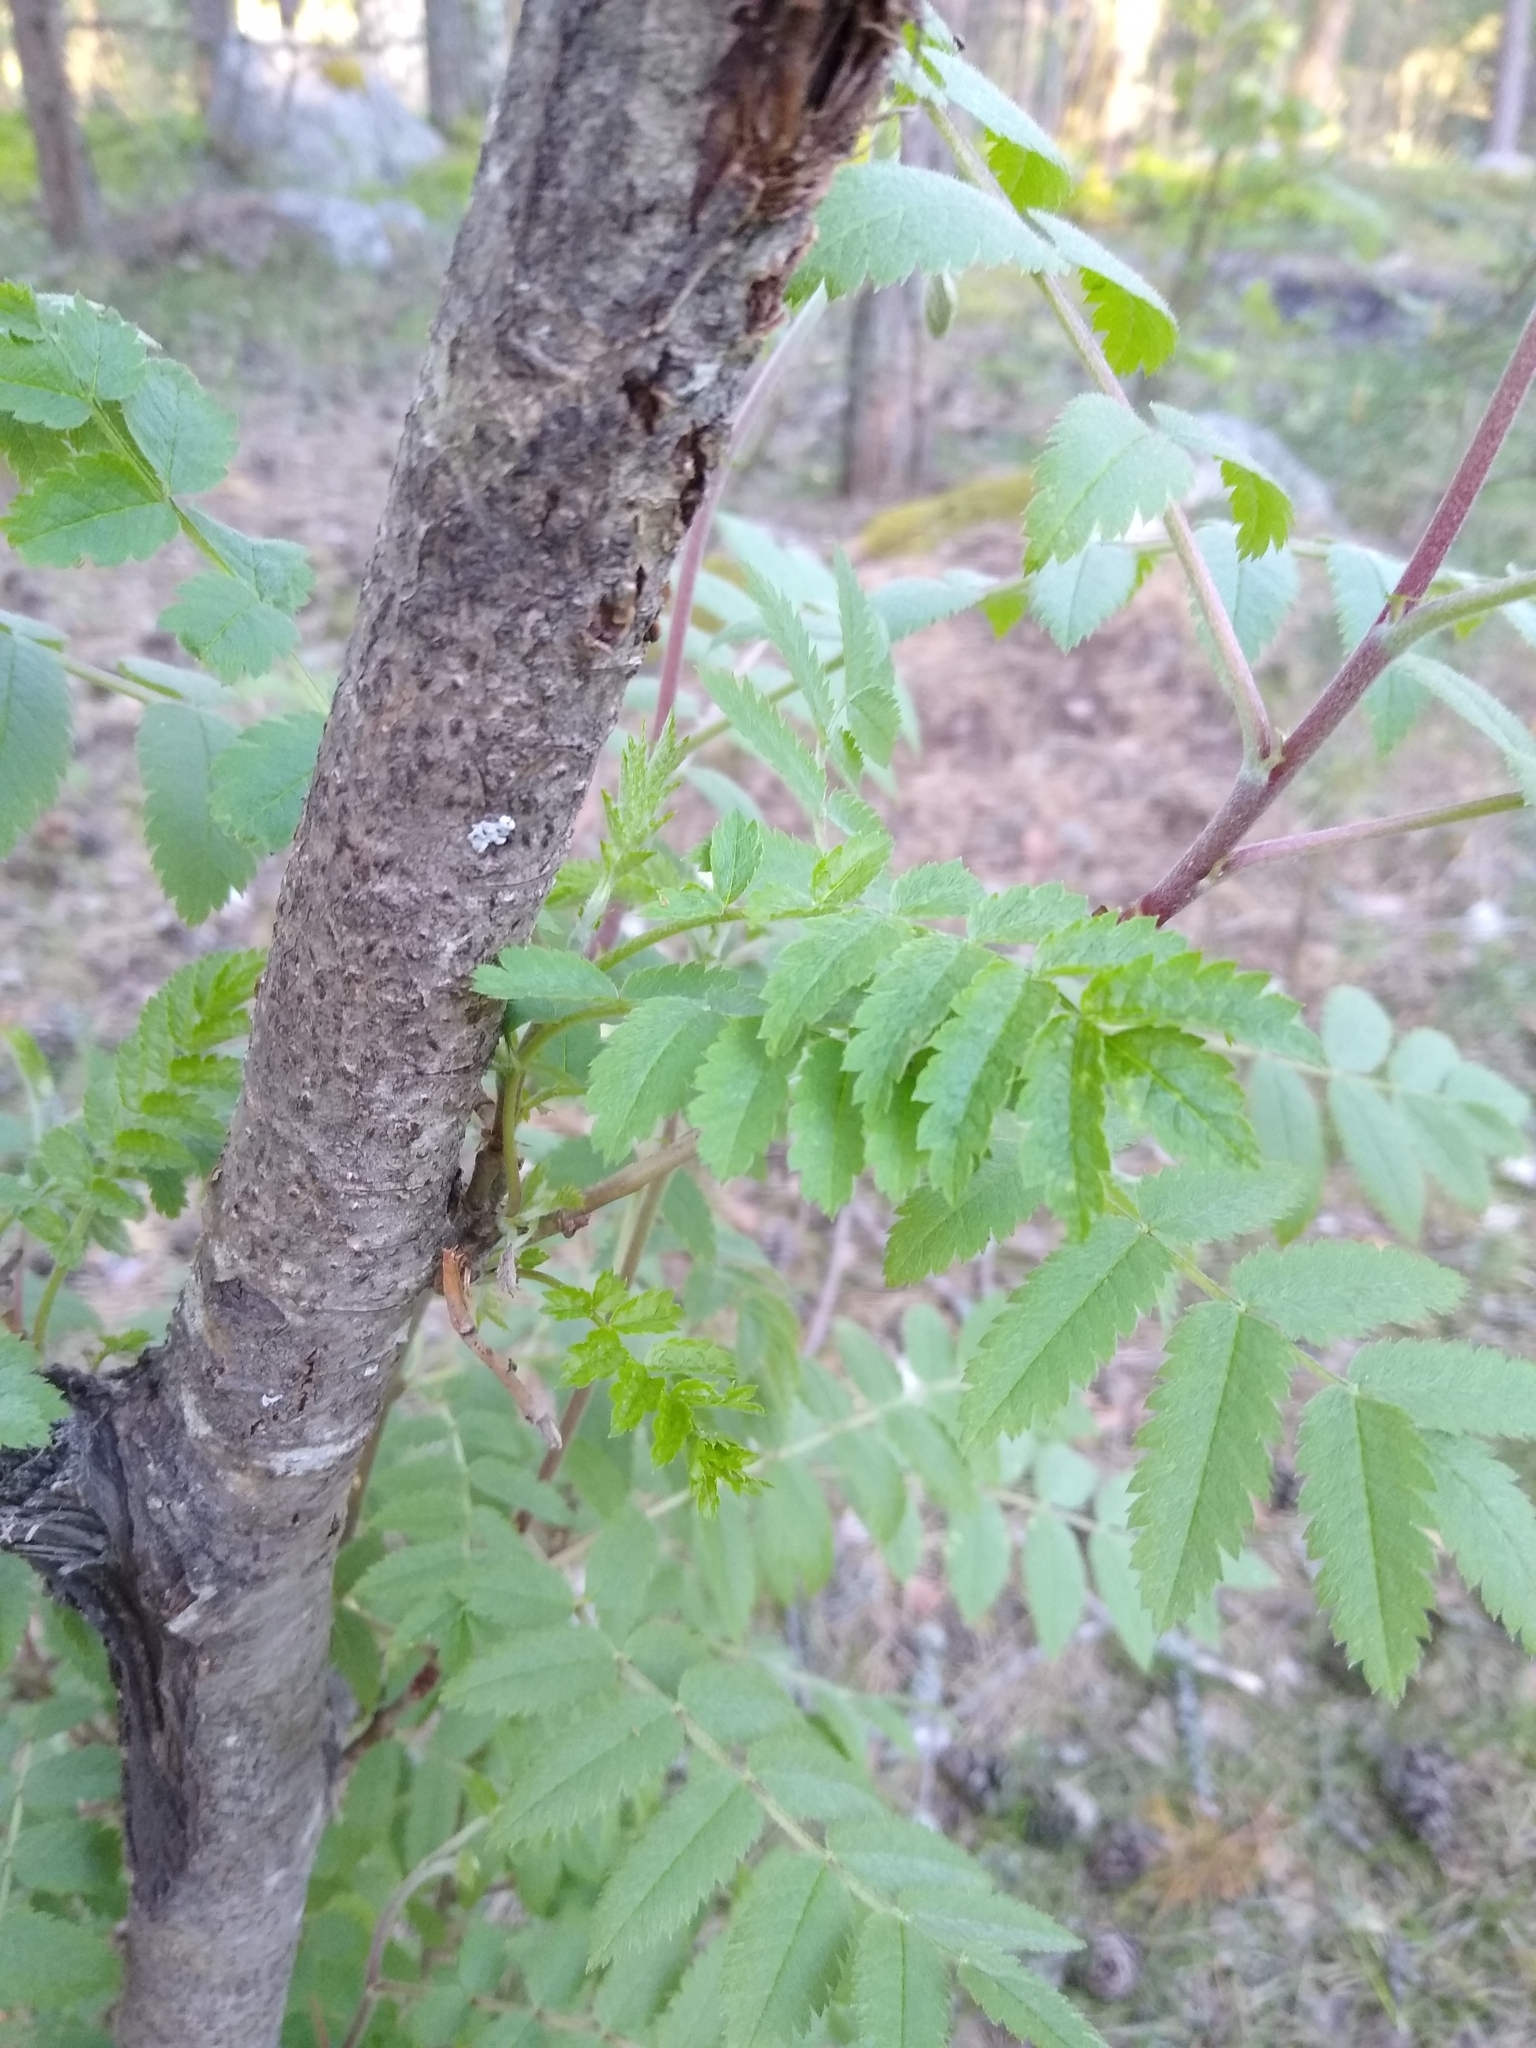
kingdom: Plantae
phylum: Tracheophyta
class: Magnoliopsida
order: Rosales
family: Rosaceae
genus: Sorbus
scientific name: Sorbus aucuparia
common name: Rowan
